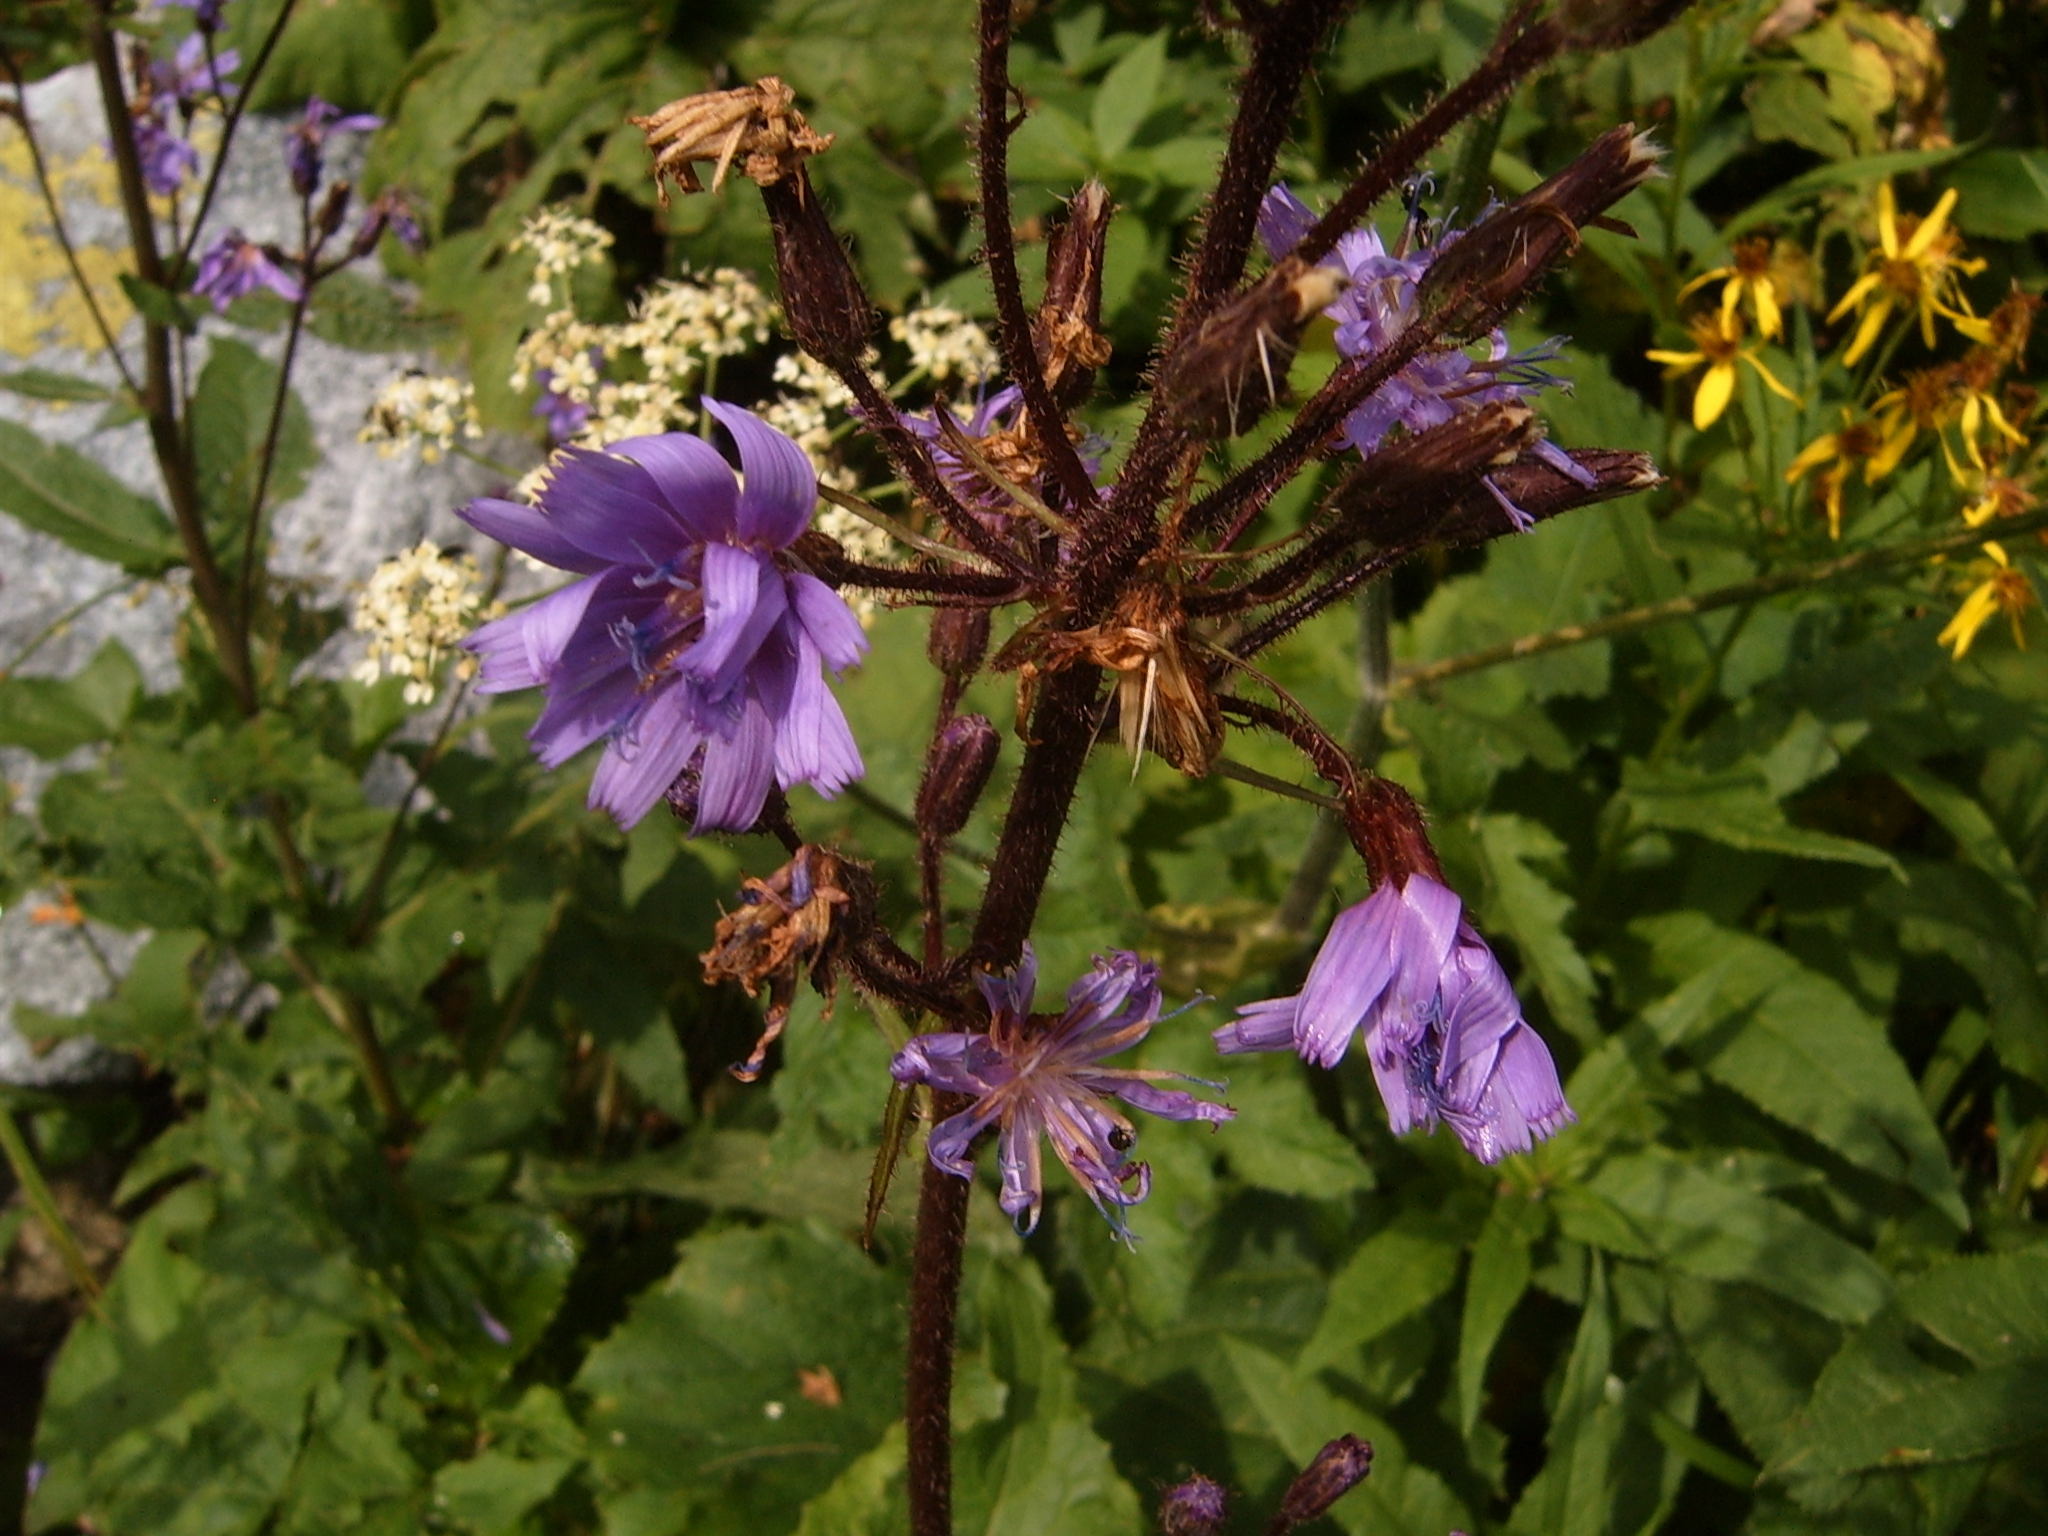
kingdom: Plantae
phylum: Tracheophyta
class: Magnoliopsida
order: Asterales
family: Asteraceae
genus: Cicerbita
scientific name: Cicerbita alpina
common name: Alpine blue-sow-thistle
